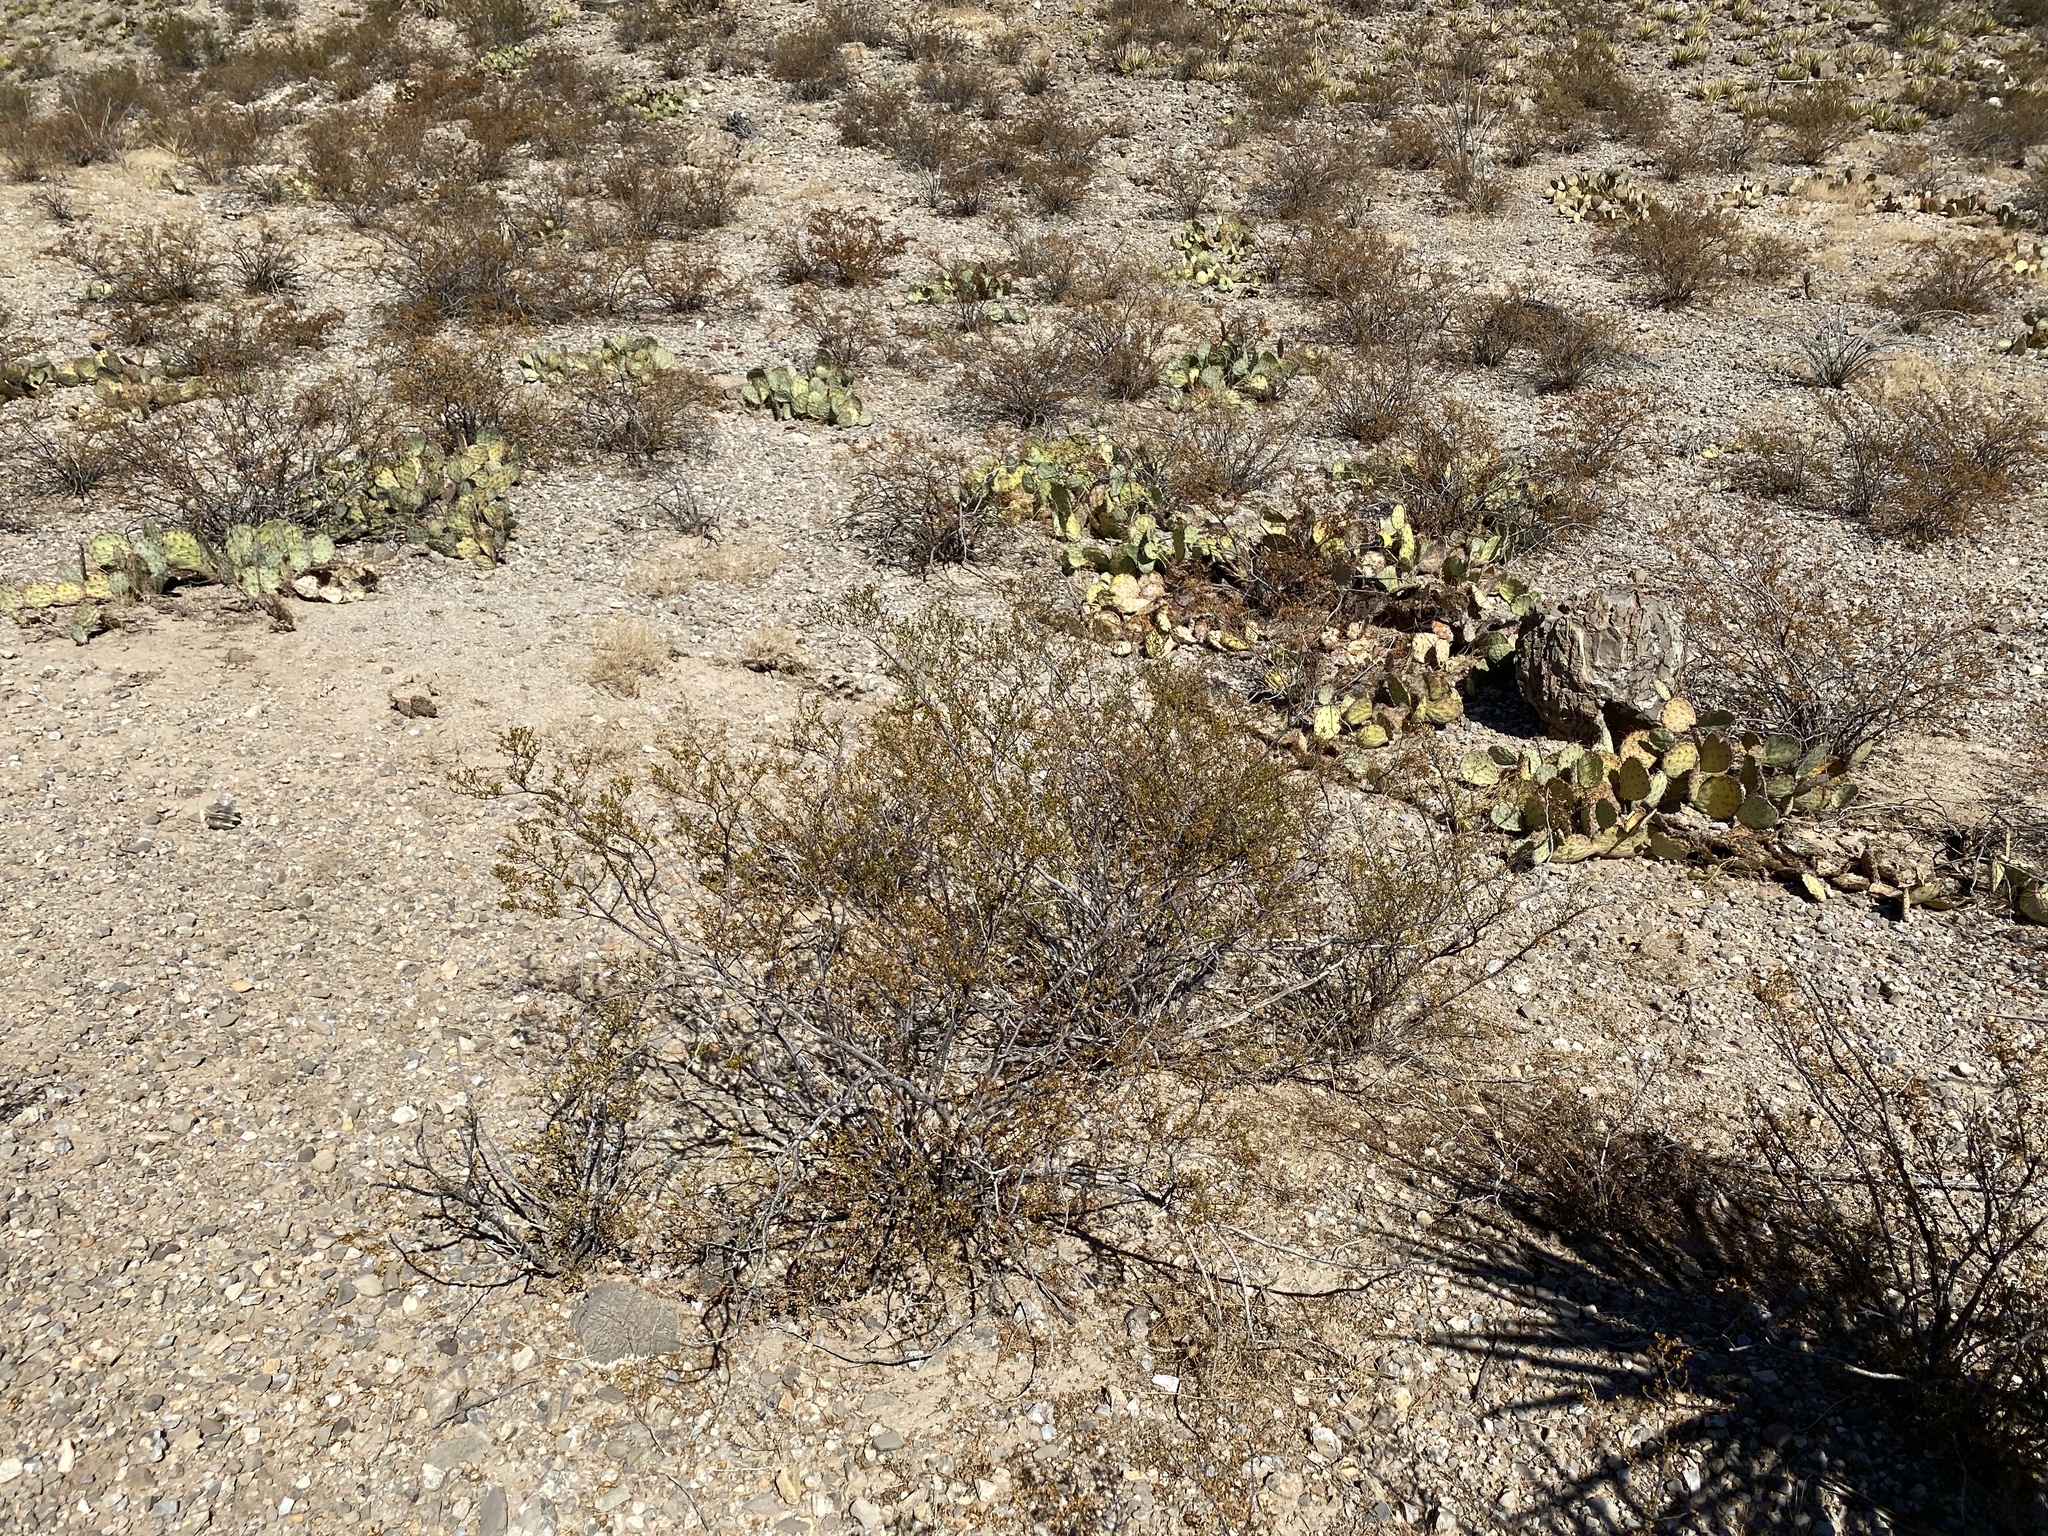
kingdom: Plantae
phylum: Tracheophyta
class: Magnoliopsida
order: Zygophyllales
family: Zygophyllaceae
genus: Larrea
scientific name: Larrea tridentata
